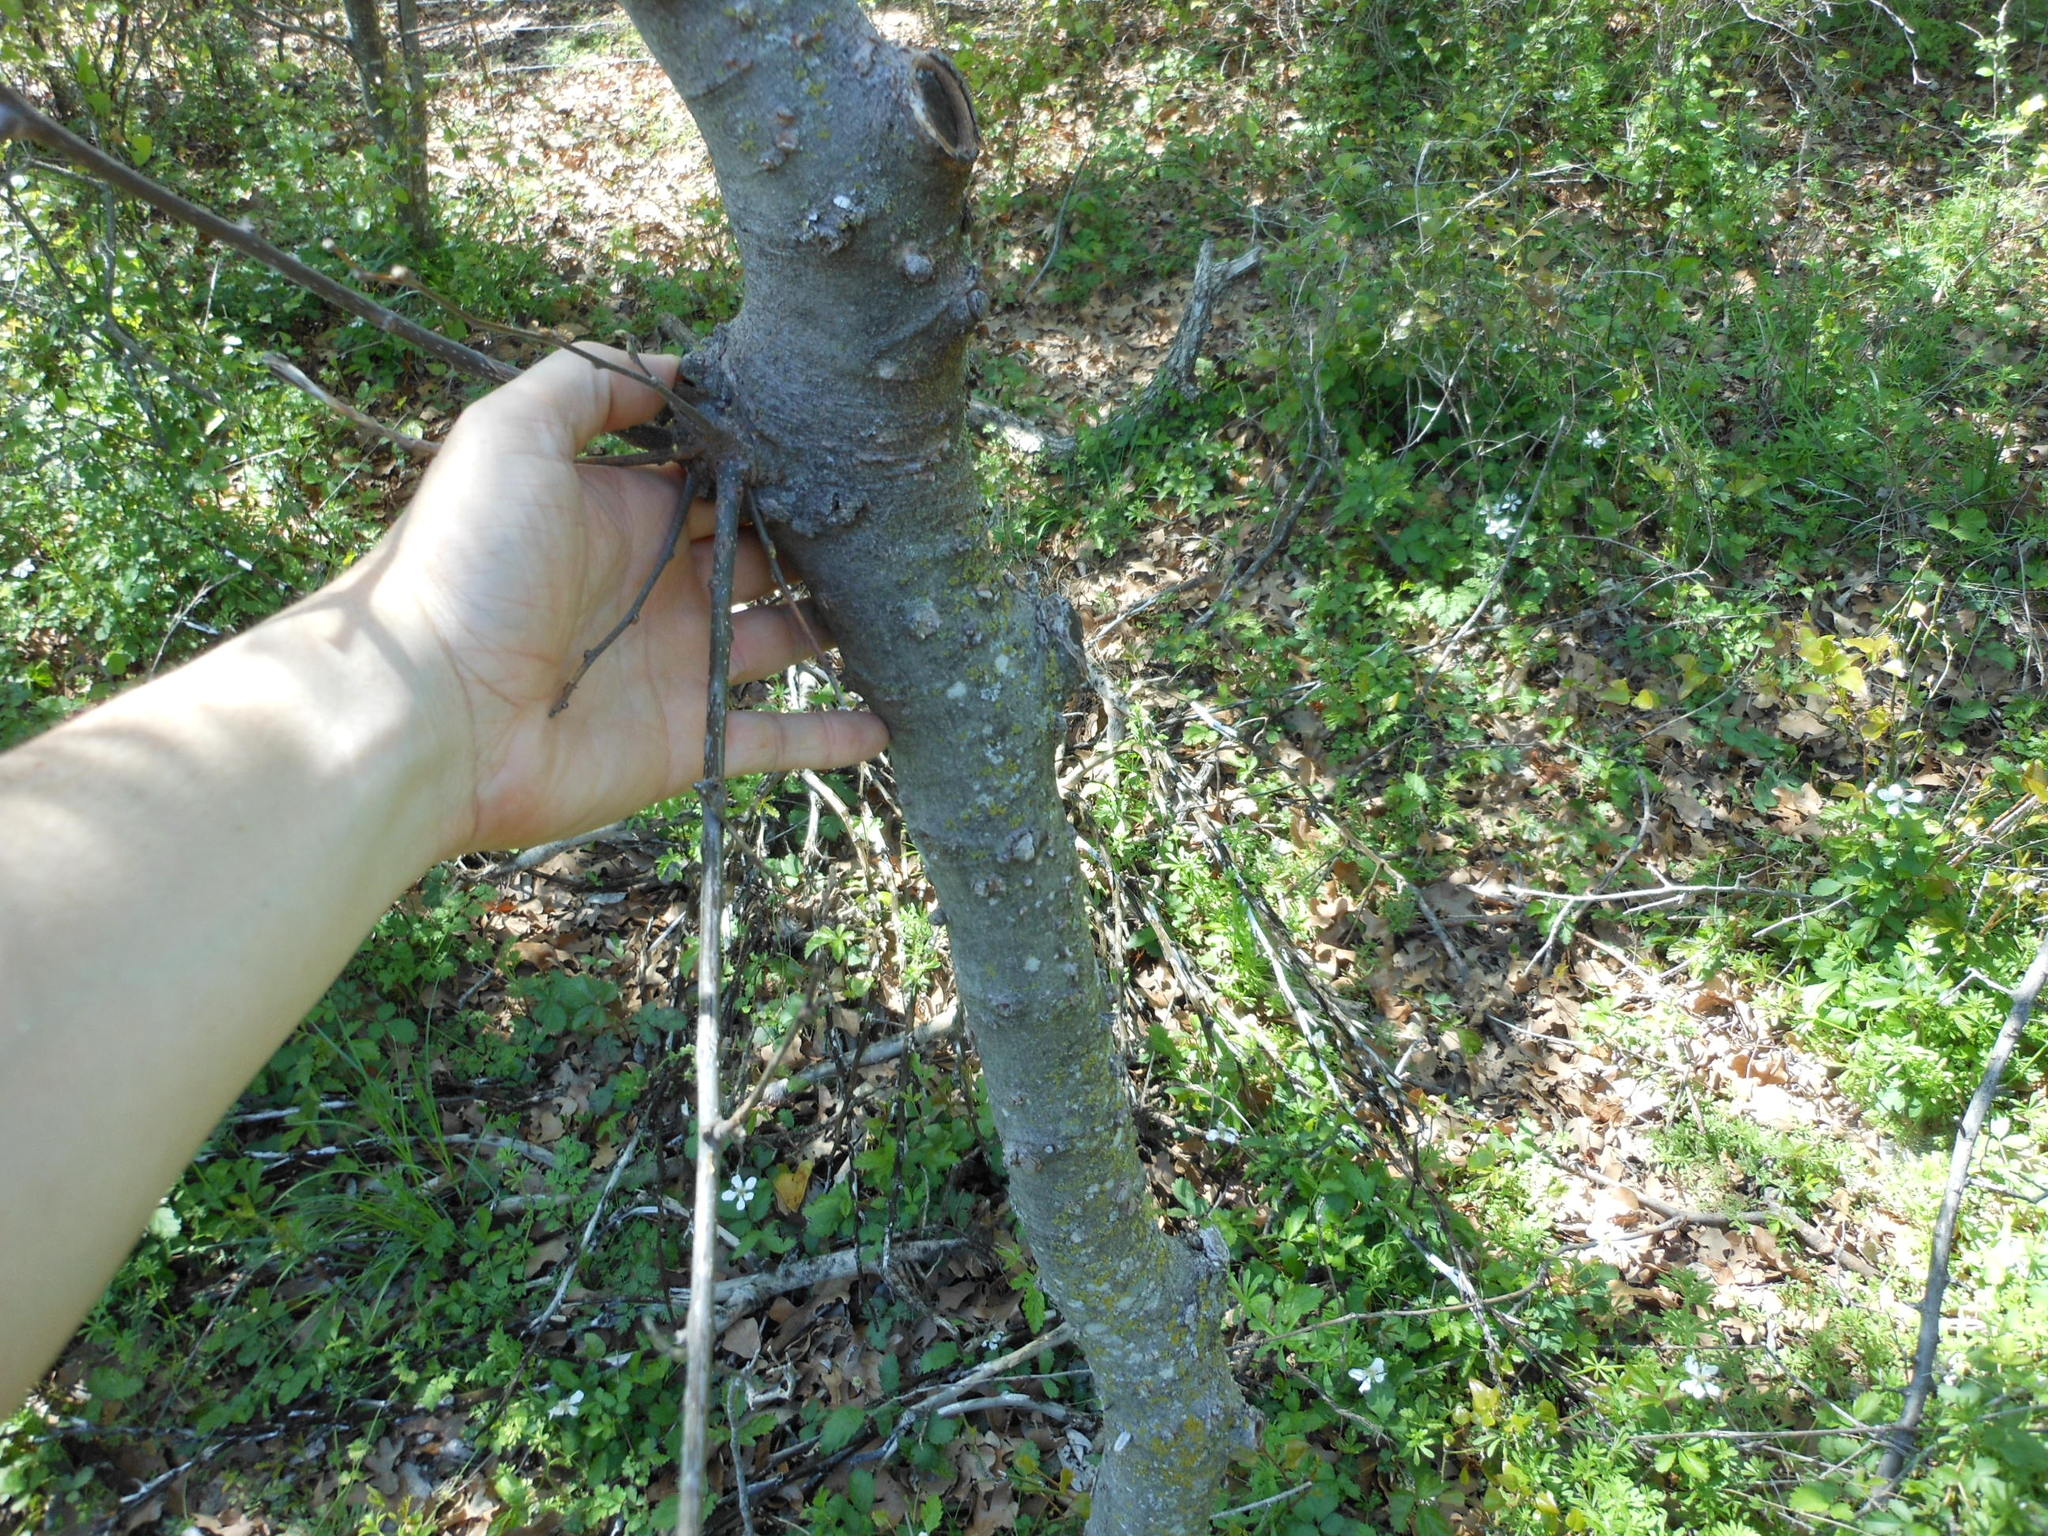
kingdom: Plantae
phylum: Tracheophyta
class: Magnoliopsida
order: Rosales
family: Cannabaceae
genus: Celtis
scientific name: Celtis laevigata
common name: Sugarberry
